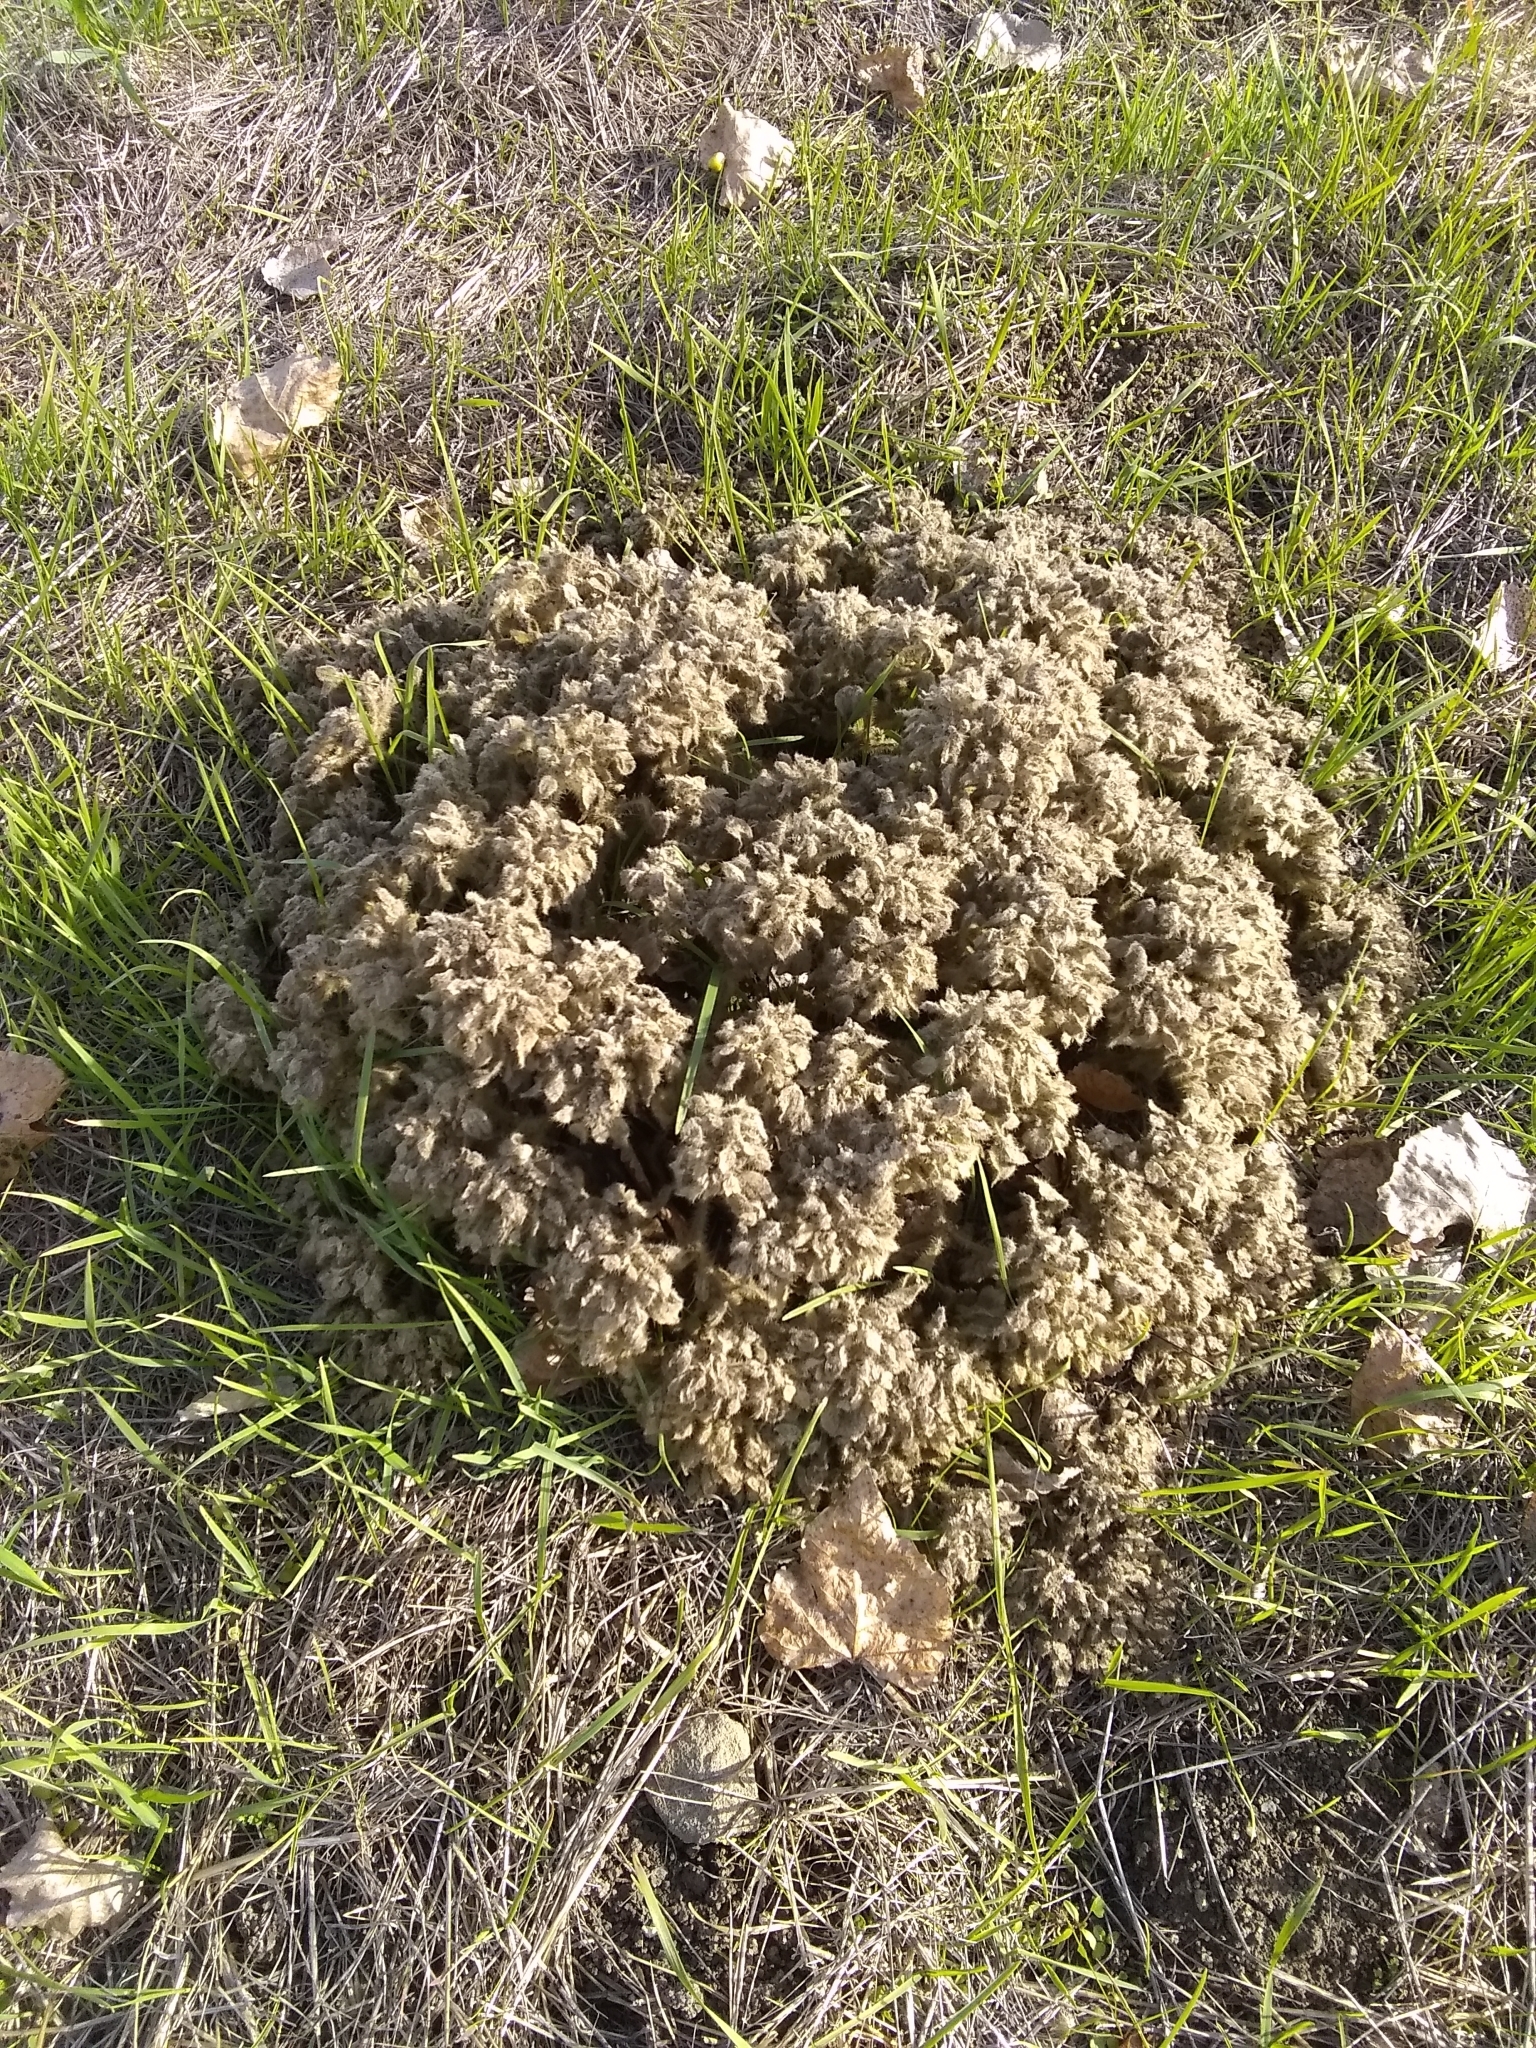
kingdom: Plantae
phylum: Tracheophyta
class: Magnoliopsida
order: Malpighiales
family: Euphorbiaceae
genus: Croton
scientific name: Croton setiger
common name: Dove weed
